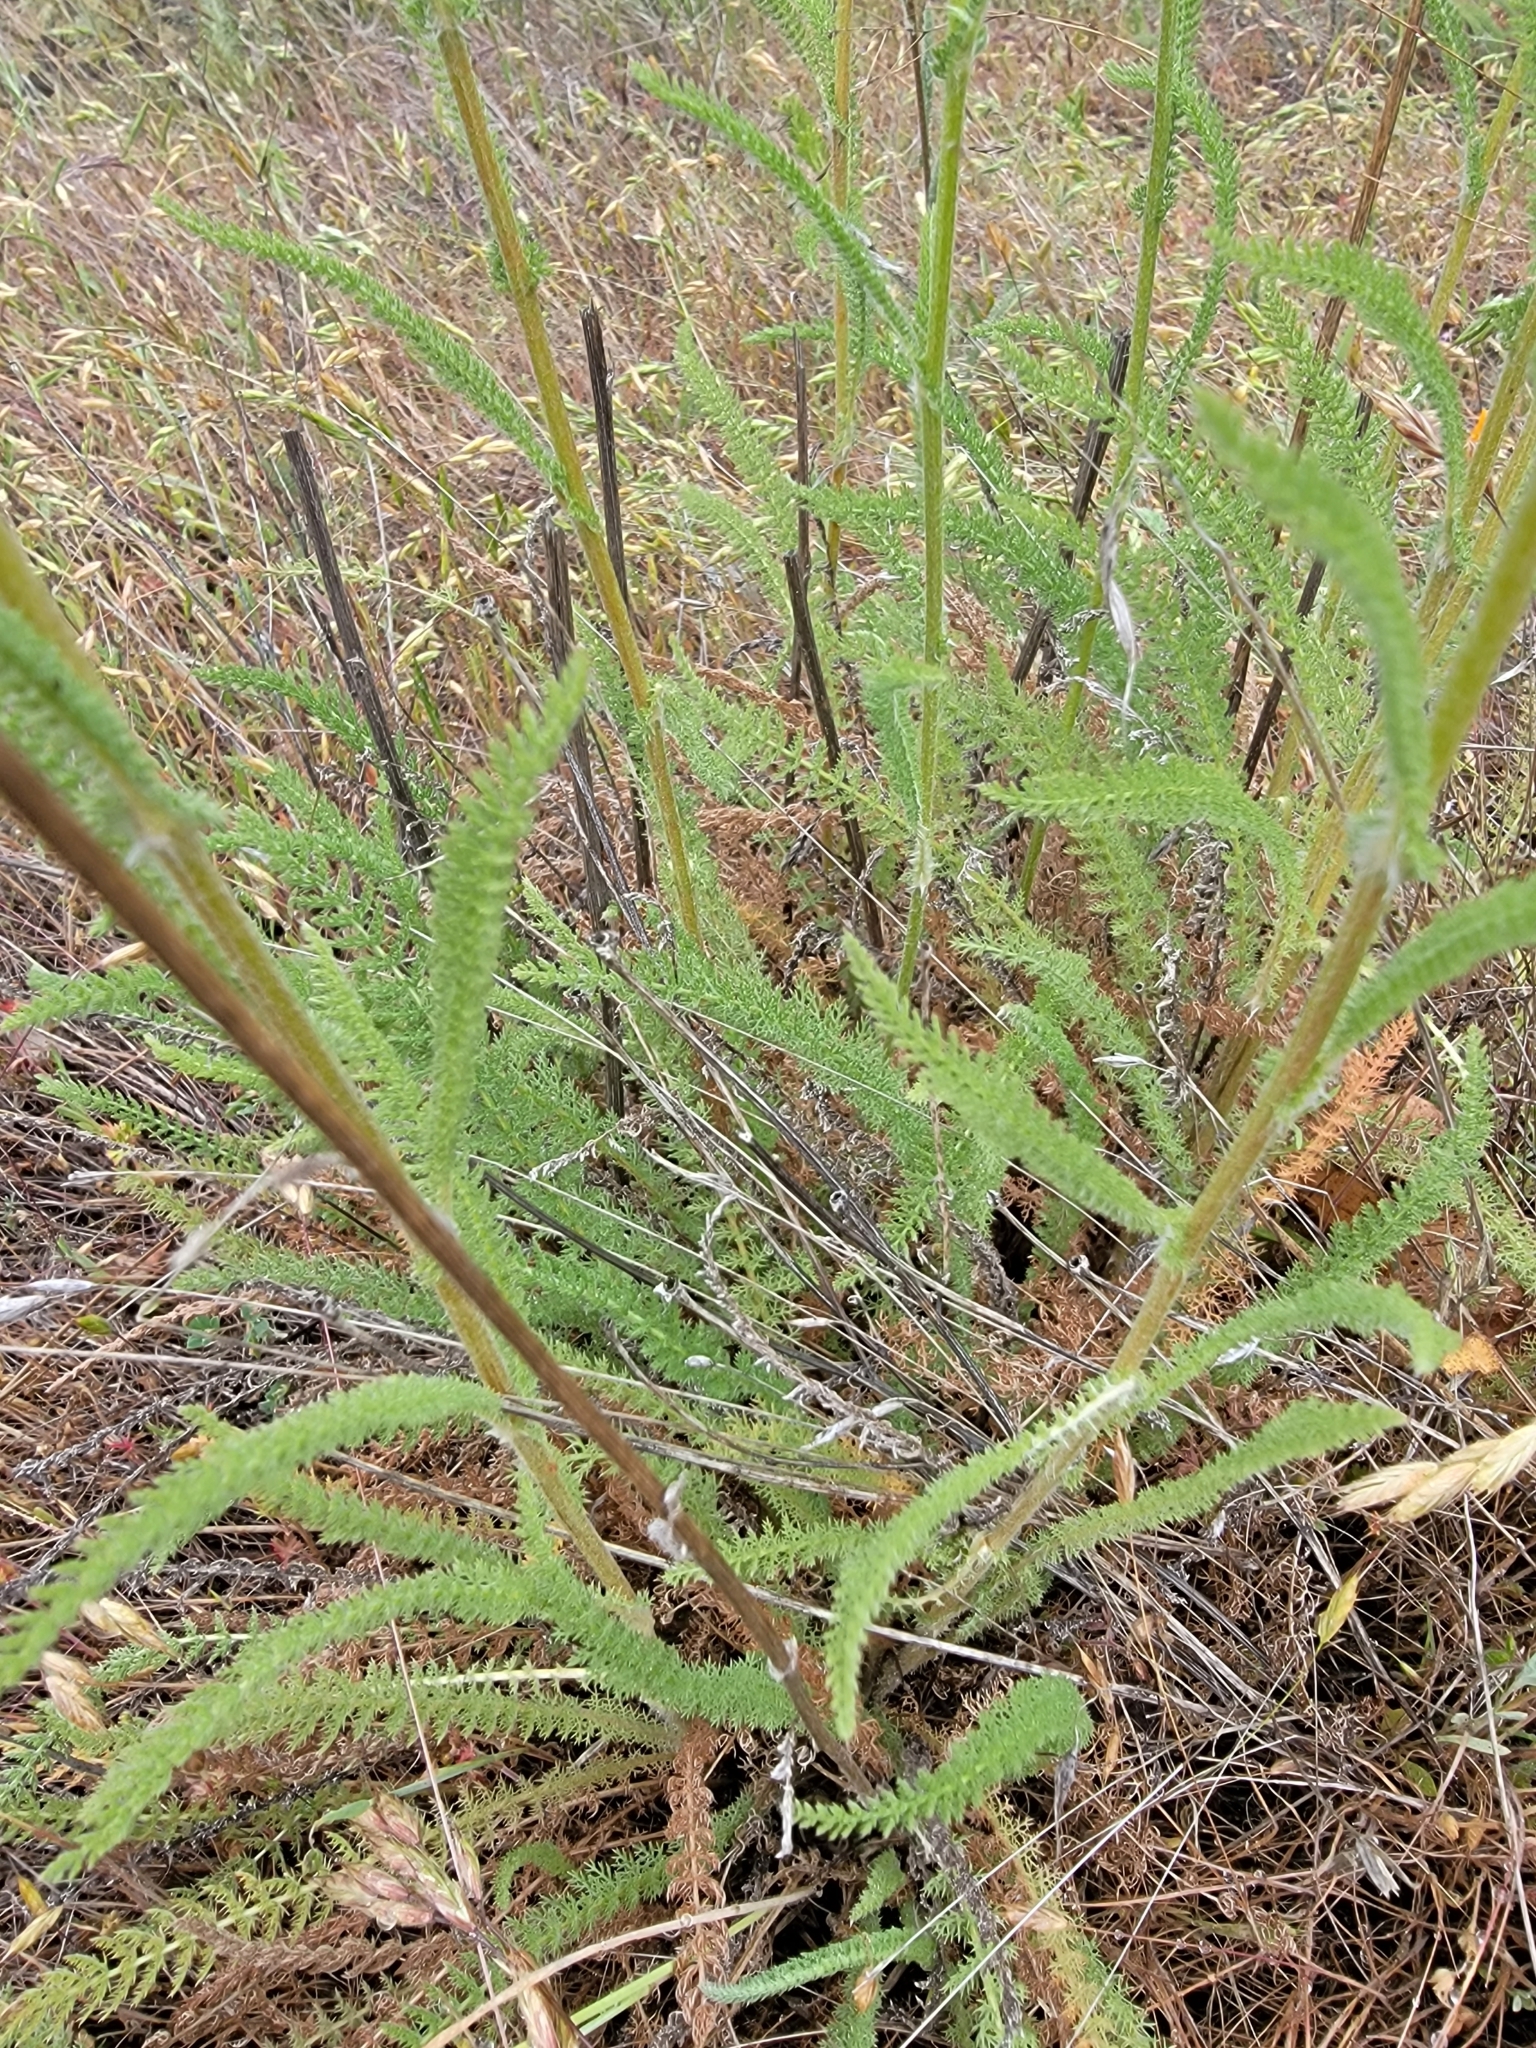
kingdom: Plantae
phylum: Tracheophyta
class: Magnoliopsida
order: Asterales
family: Asteraceae
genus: Achillea
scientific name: Achillea millefolium
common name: Yarrow
